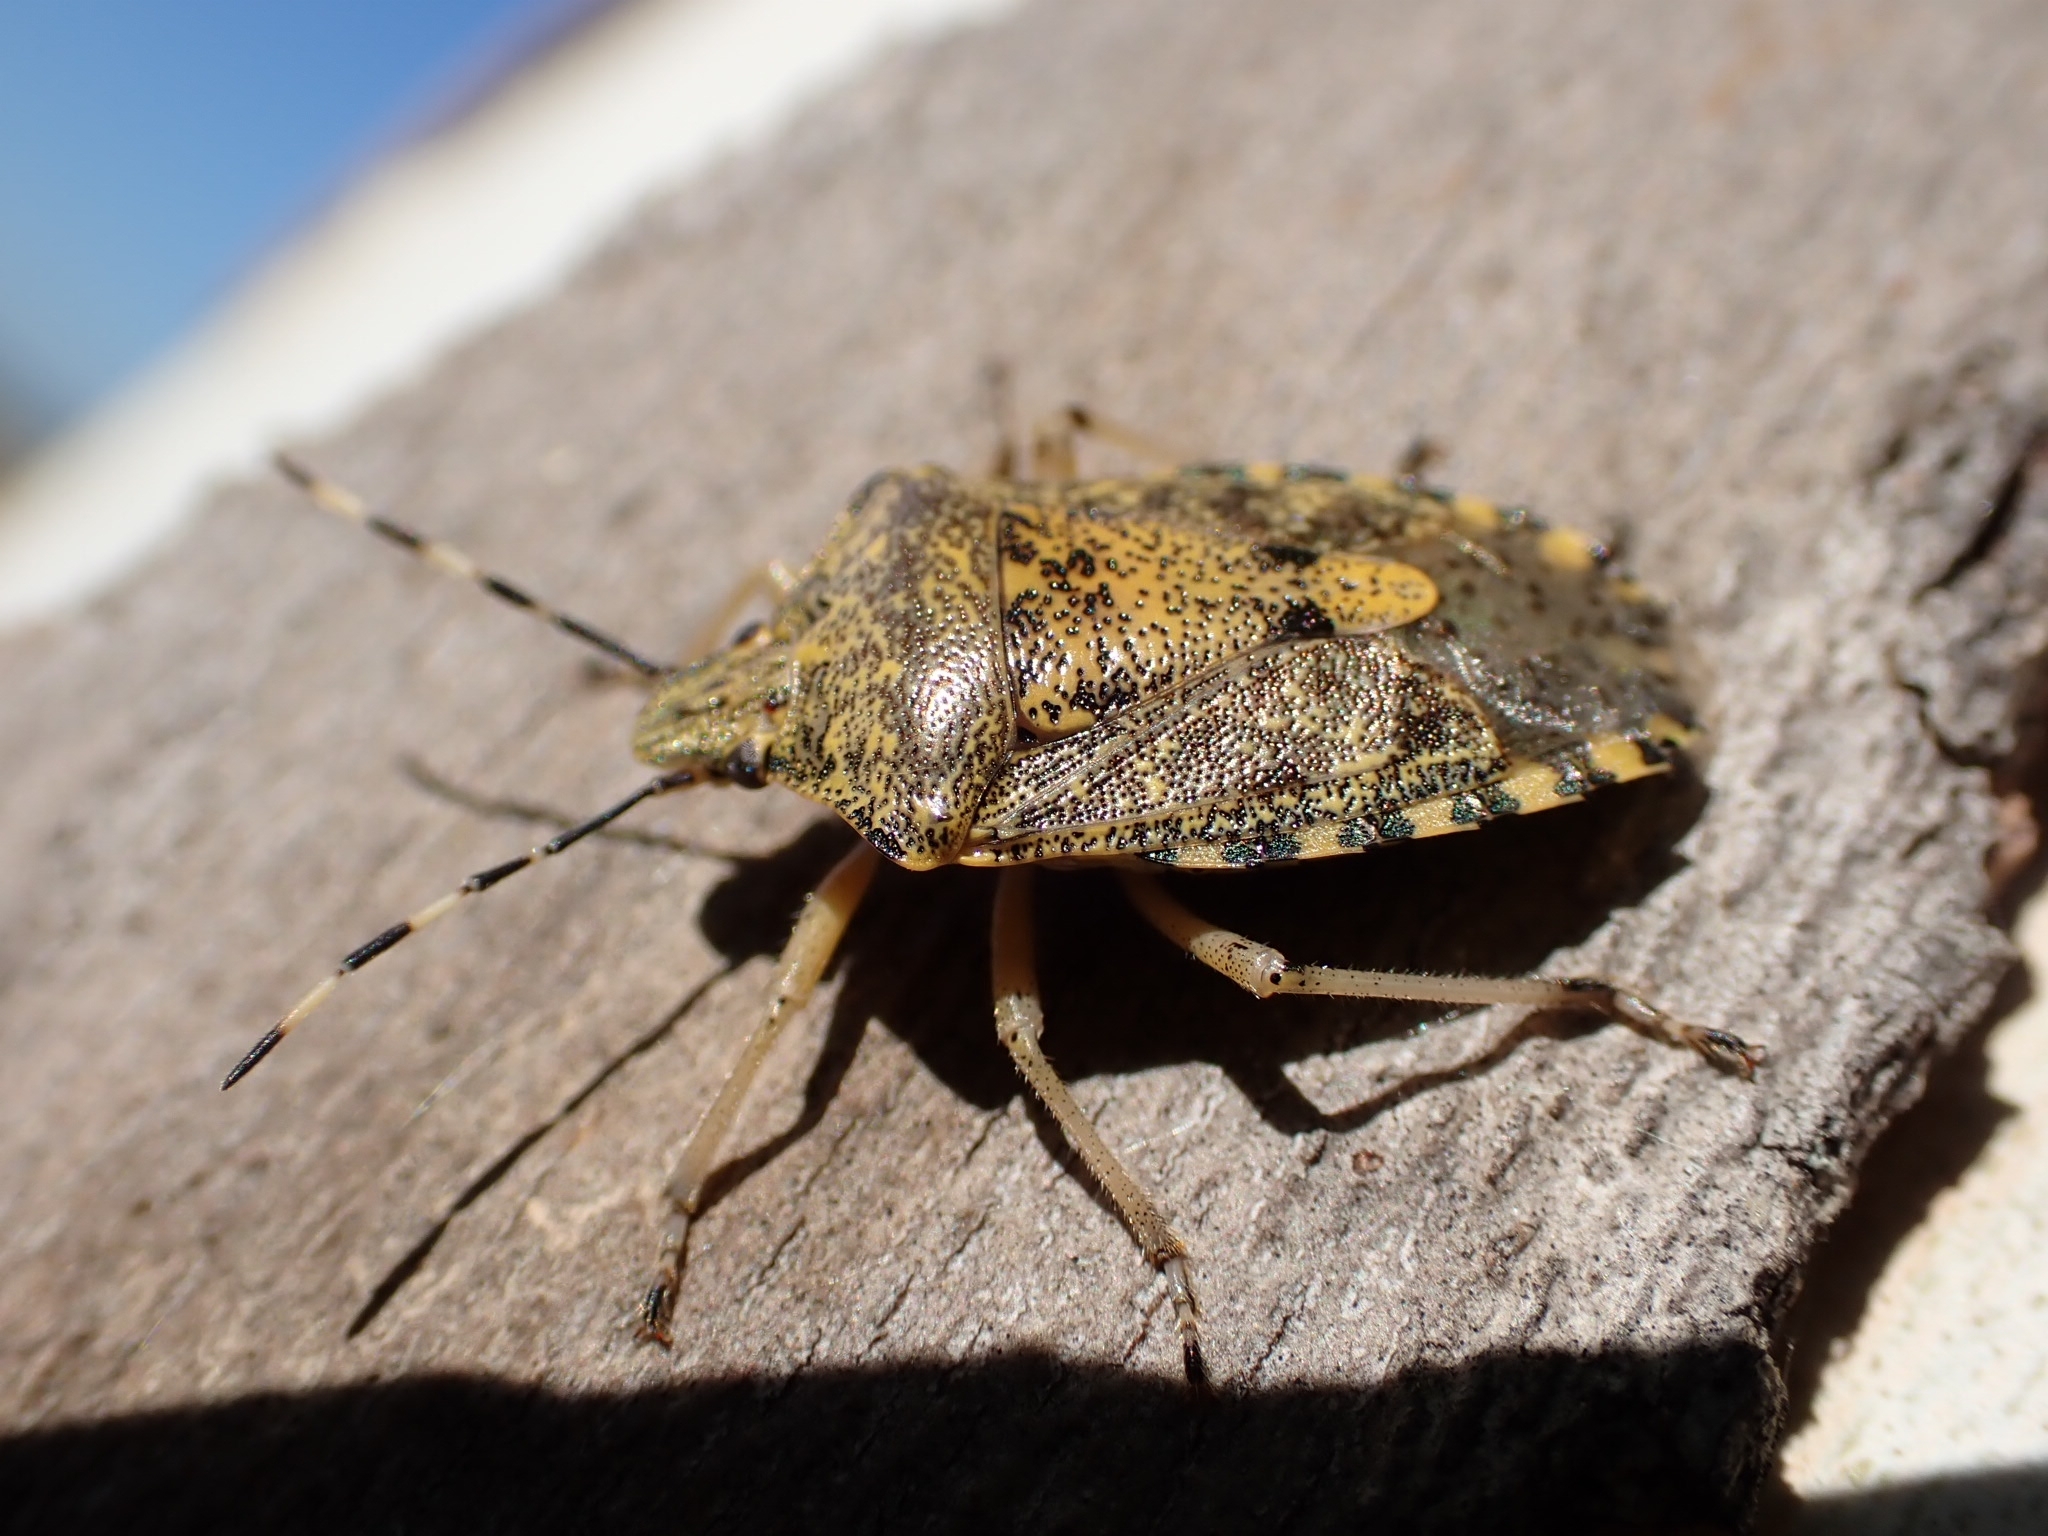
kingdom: Animalia
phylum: Arthropoda
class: Insecta
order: Hemiptera
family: Pentatomidae
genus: Rhaphigaster
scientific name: Rhaphigaster nebulosa
